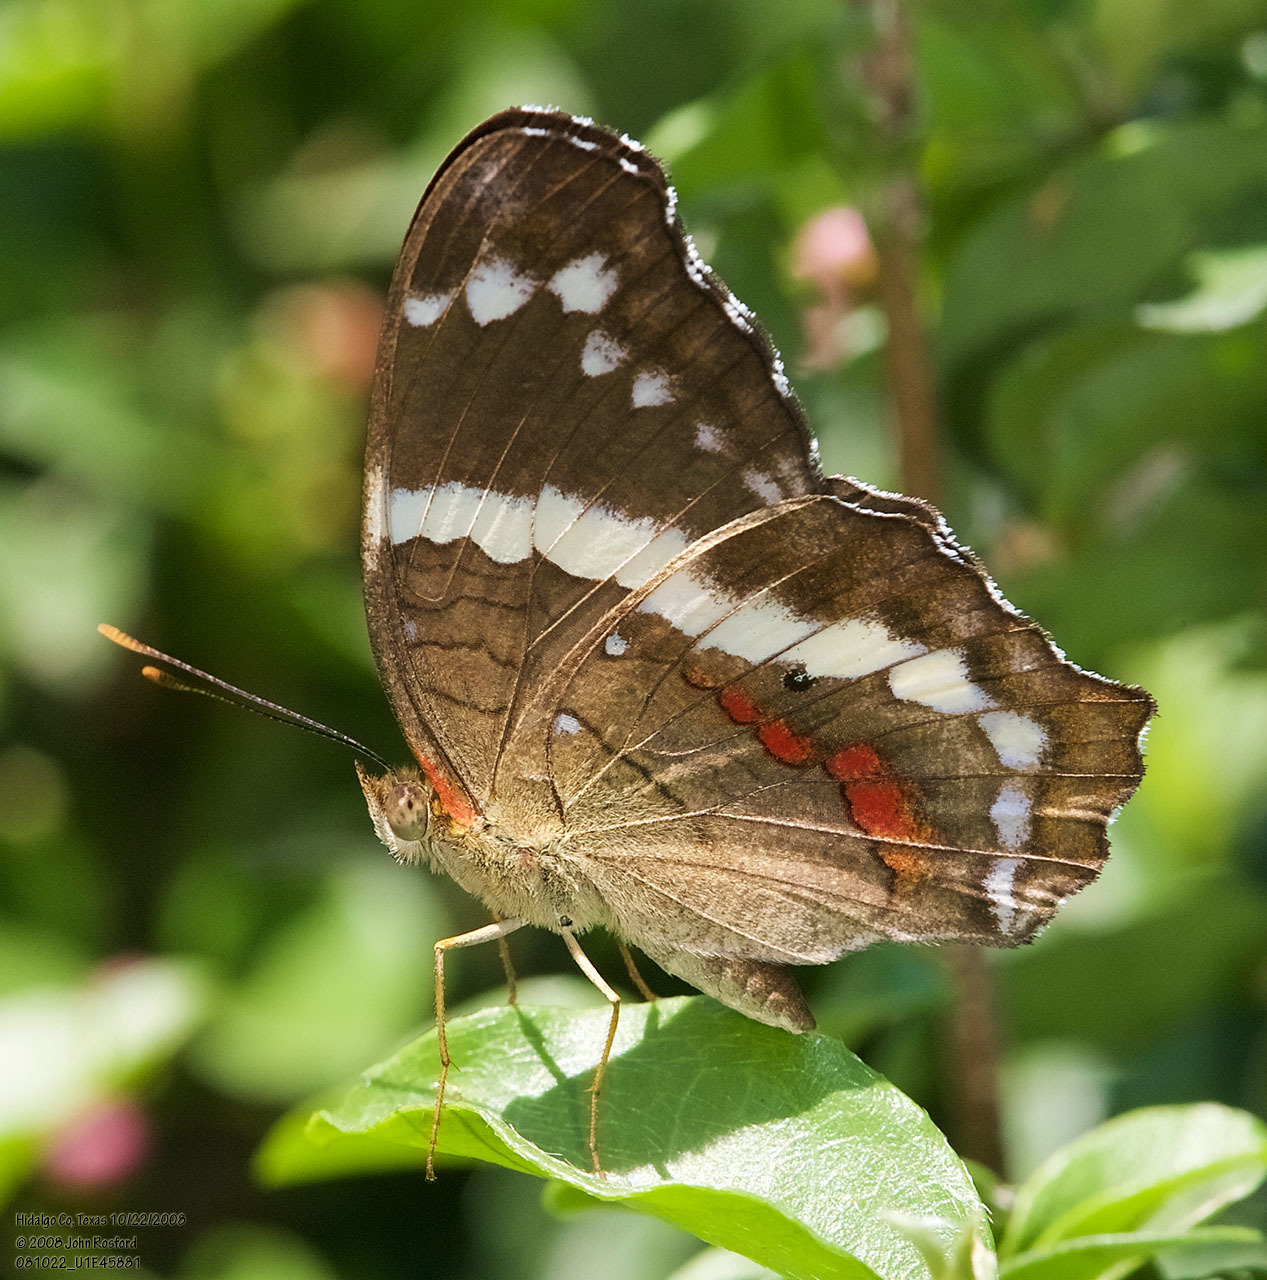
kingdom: Animalia
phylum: Arthropoda
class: Insecta
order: Lepidoptera
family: Nymphalidae
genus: Anartia
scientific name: Anartia fatima
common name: Banded peacock
